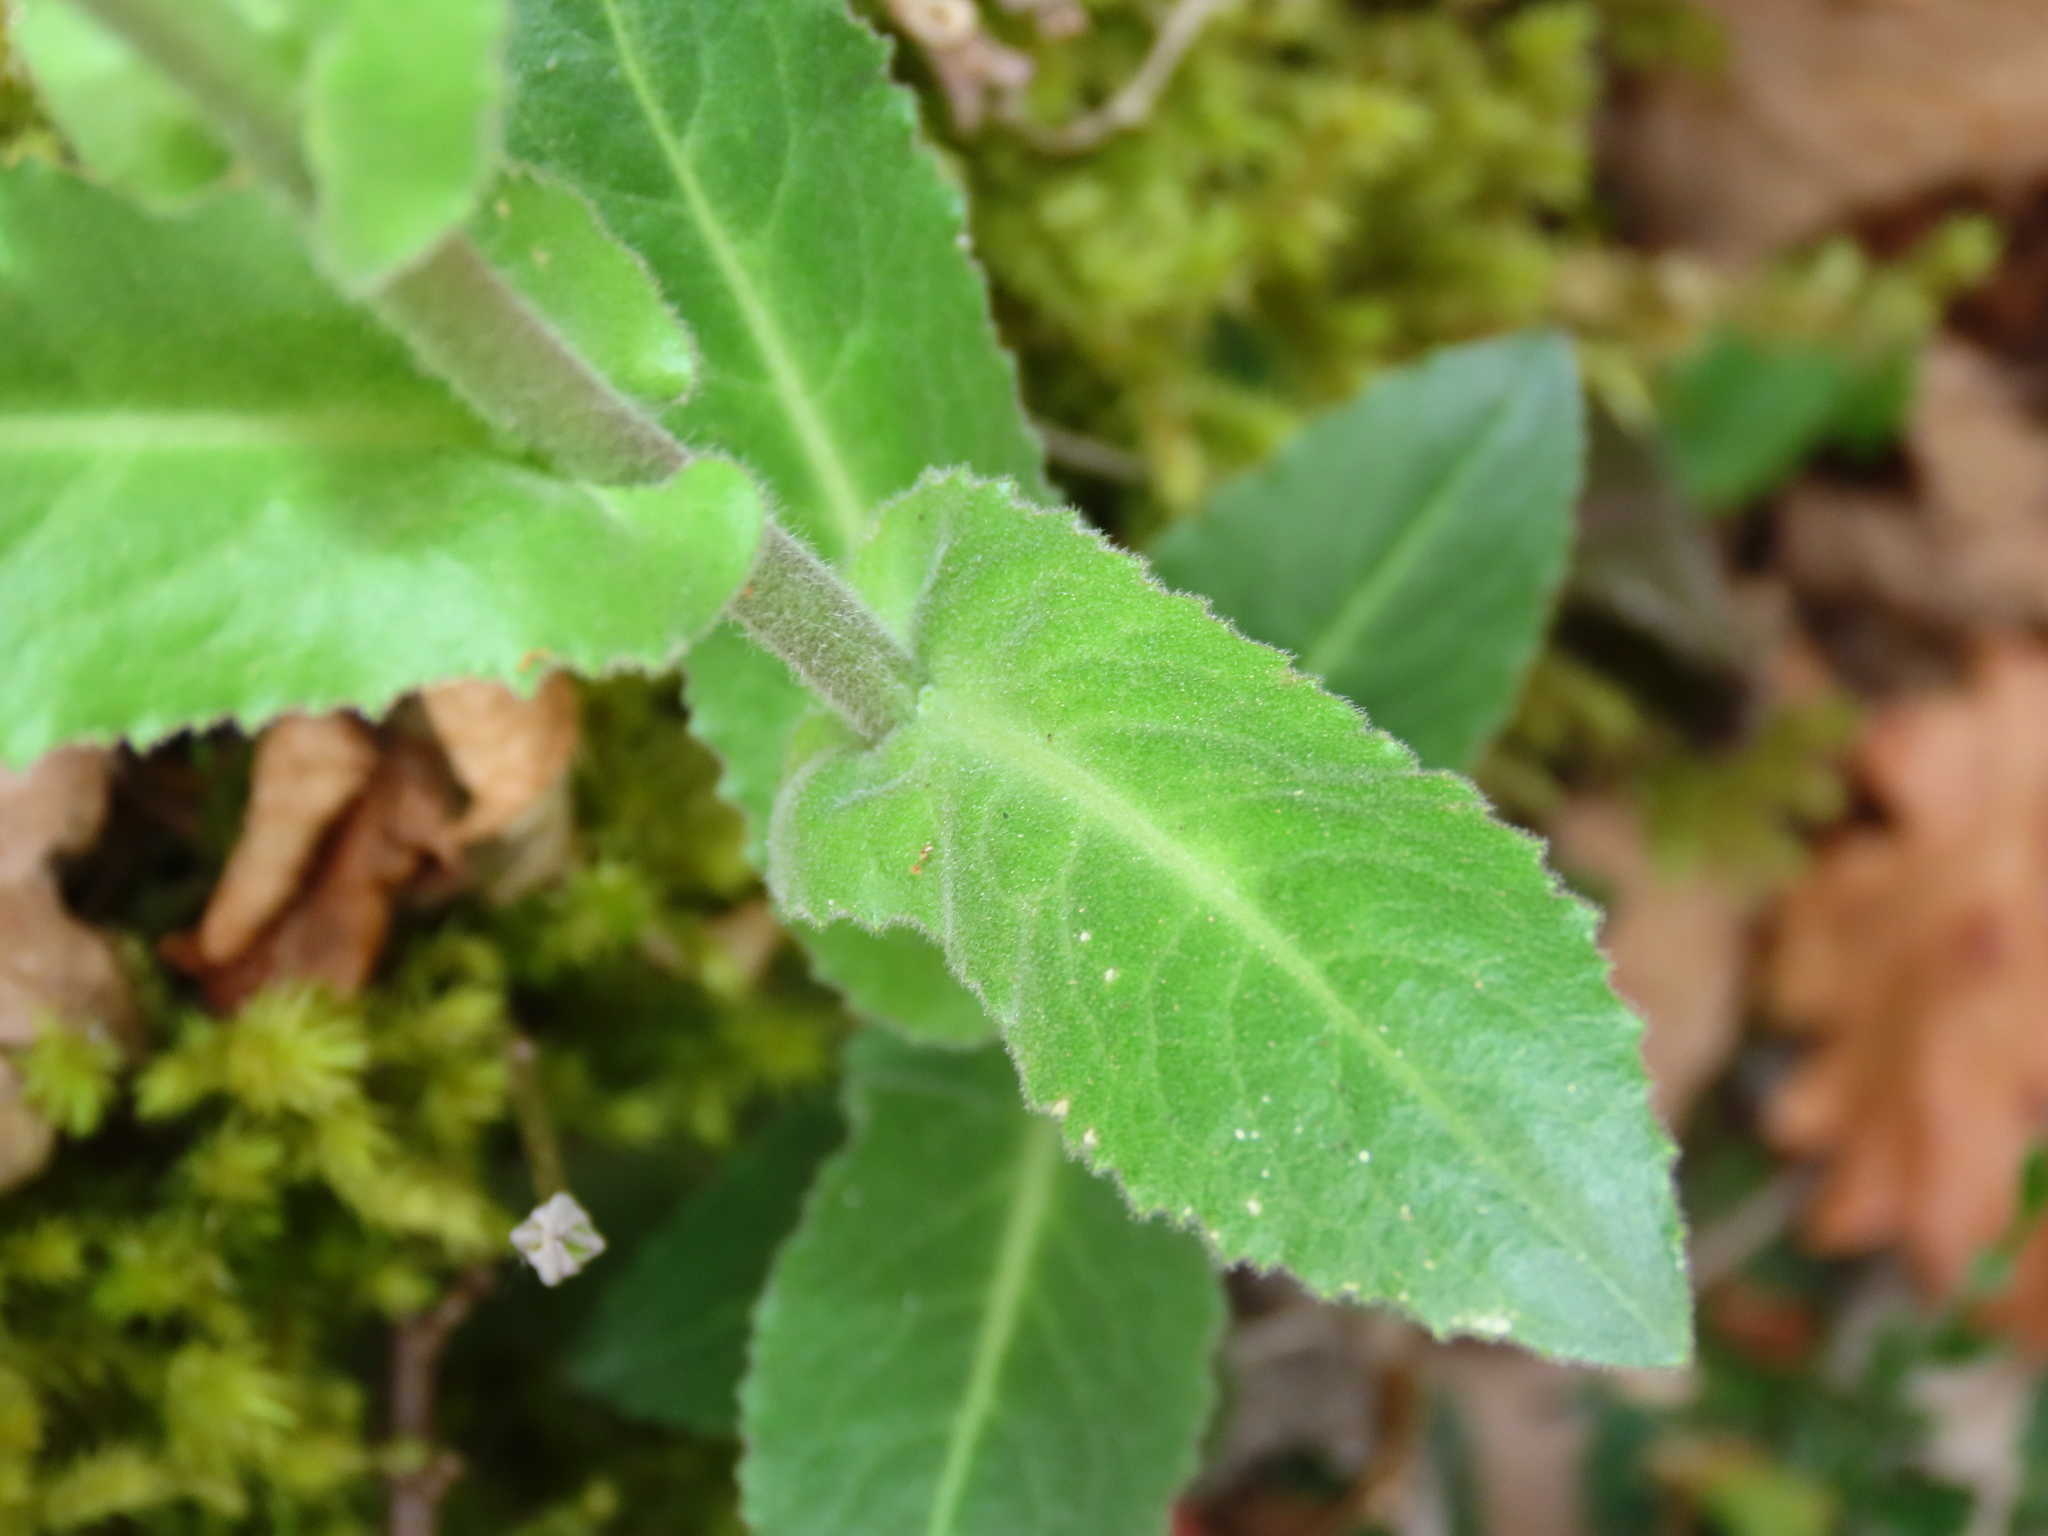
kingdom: Plantae
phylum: Tracheophyta
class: Magnoliopsida
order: Brassicales
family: Brassicaceae
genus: Pseudoturritis
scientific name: Pseudoturritis turrita
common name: Tower cress
